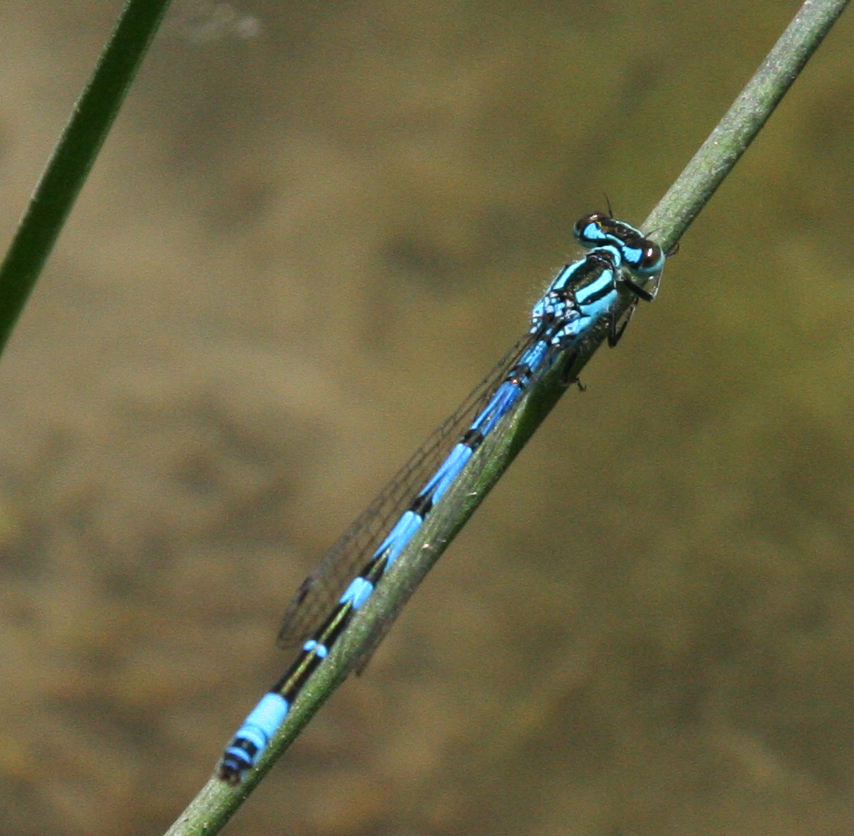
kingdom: Animalia
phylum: Arthropoda
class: Insecta
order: Odonata
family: Coenagrionidae
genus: Coenagrion
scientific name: Coenagrion ornatum
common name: Ornate bluet
